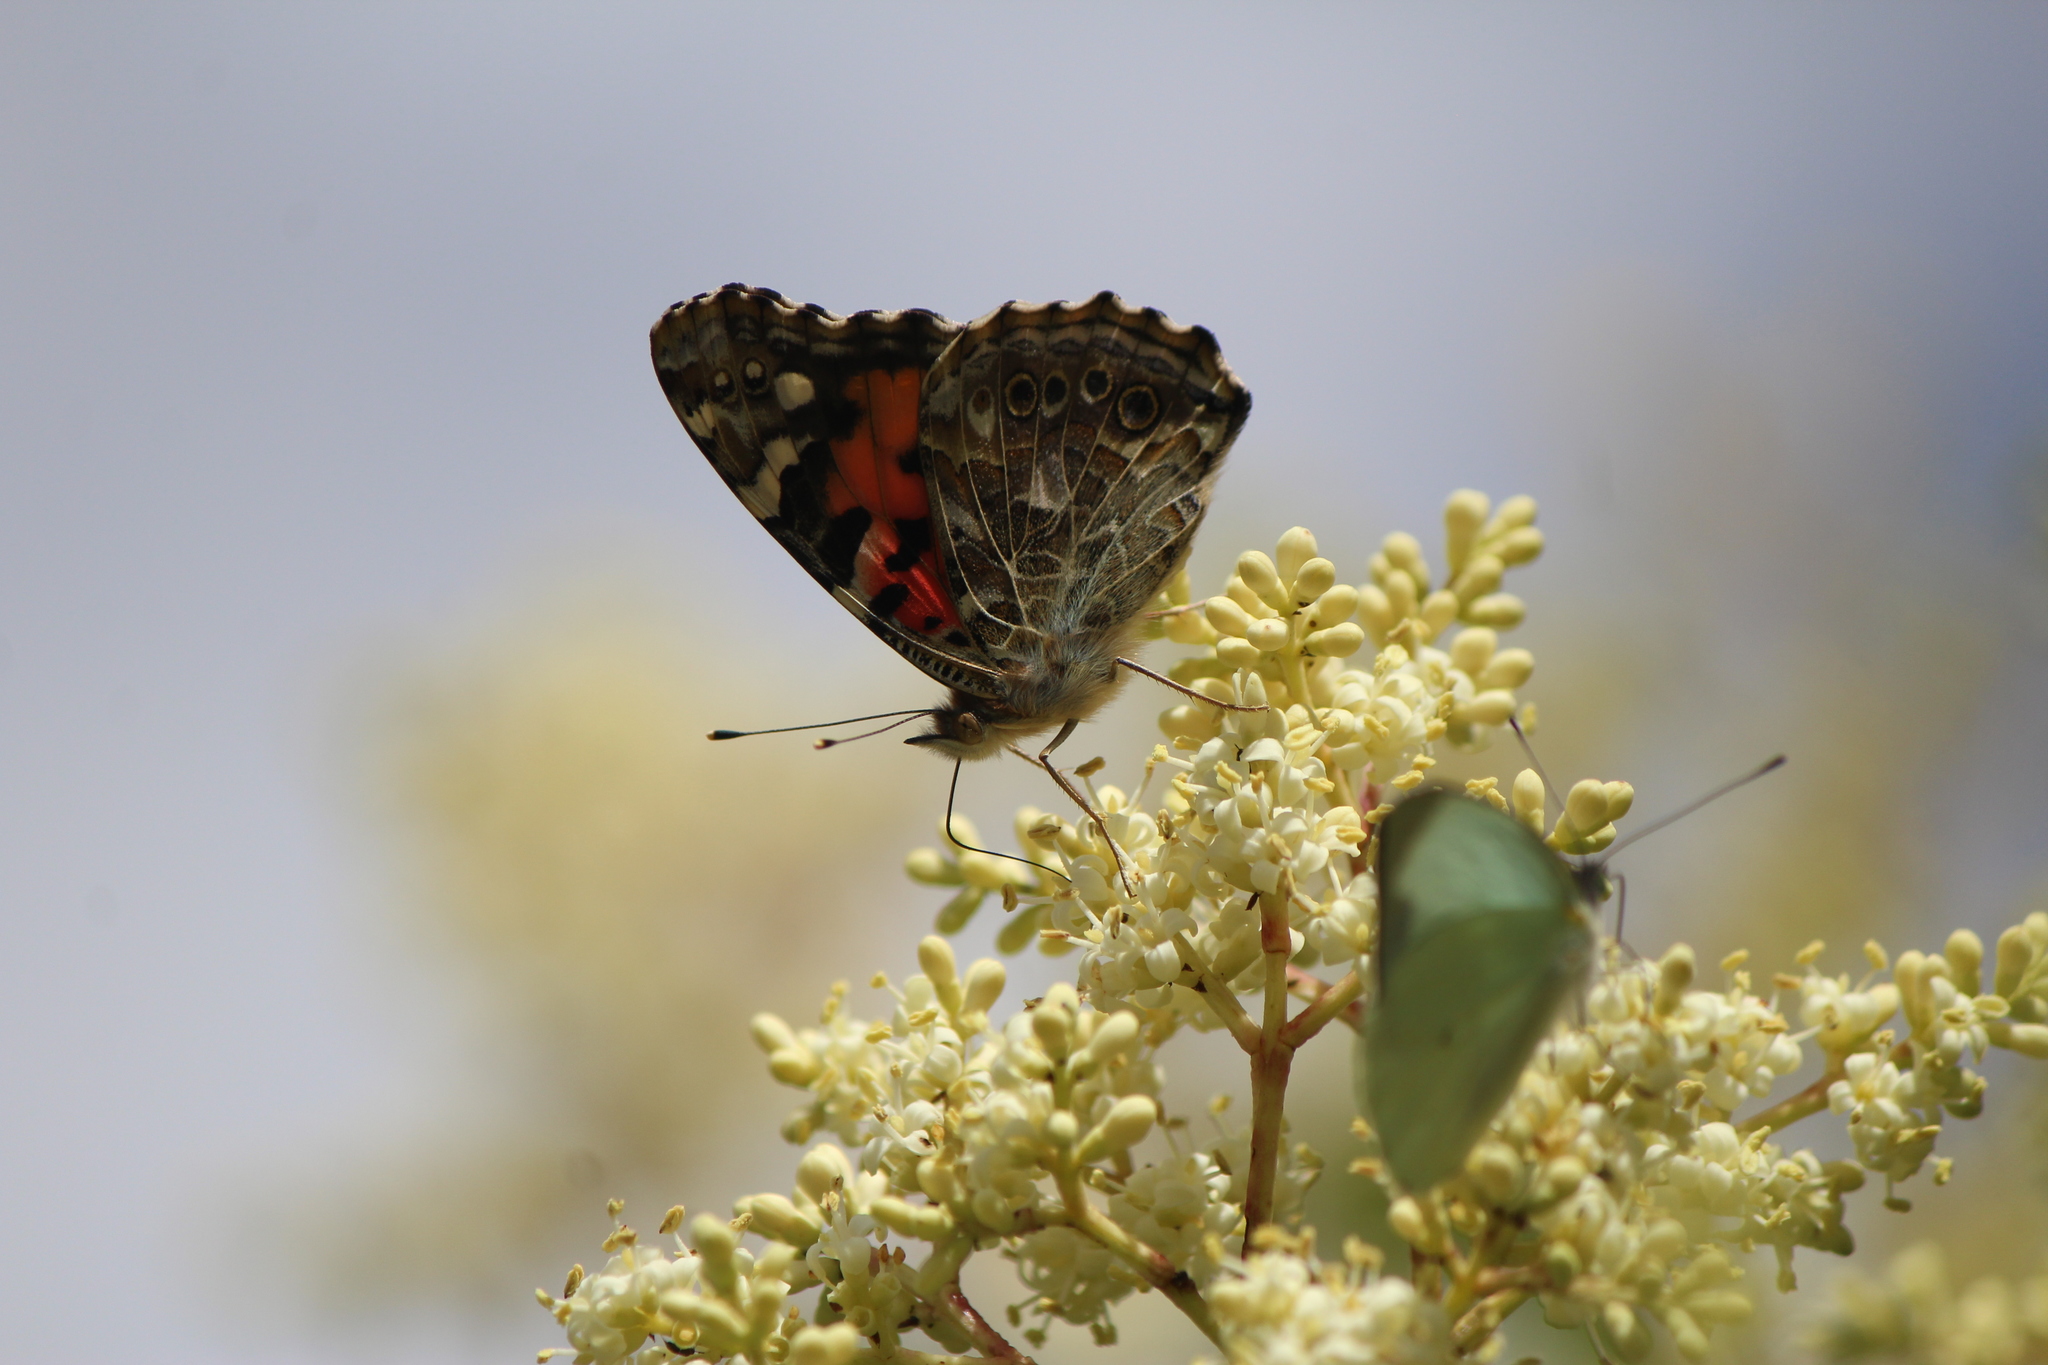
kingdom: Animalia
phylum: Arthropoda
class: Insecta
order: Lepidoptera
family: Nymphalidae
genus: Vanessa
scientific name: Vanessa cardui
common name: Painted lady
